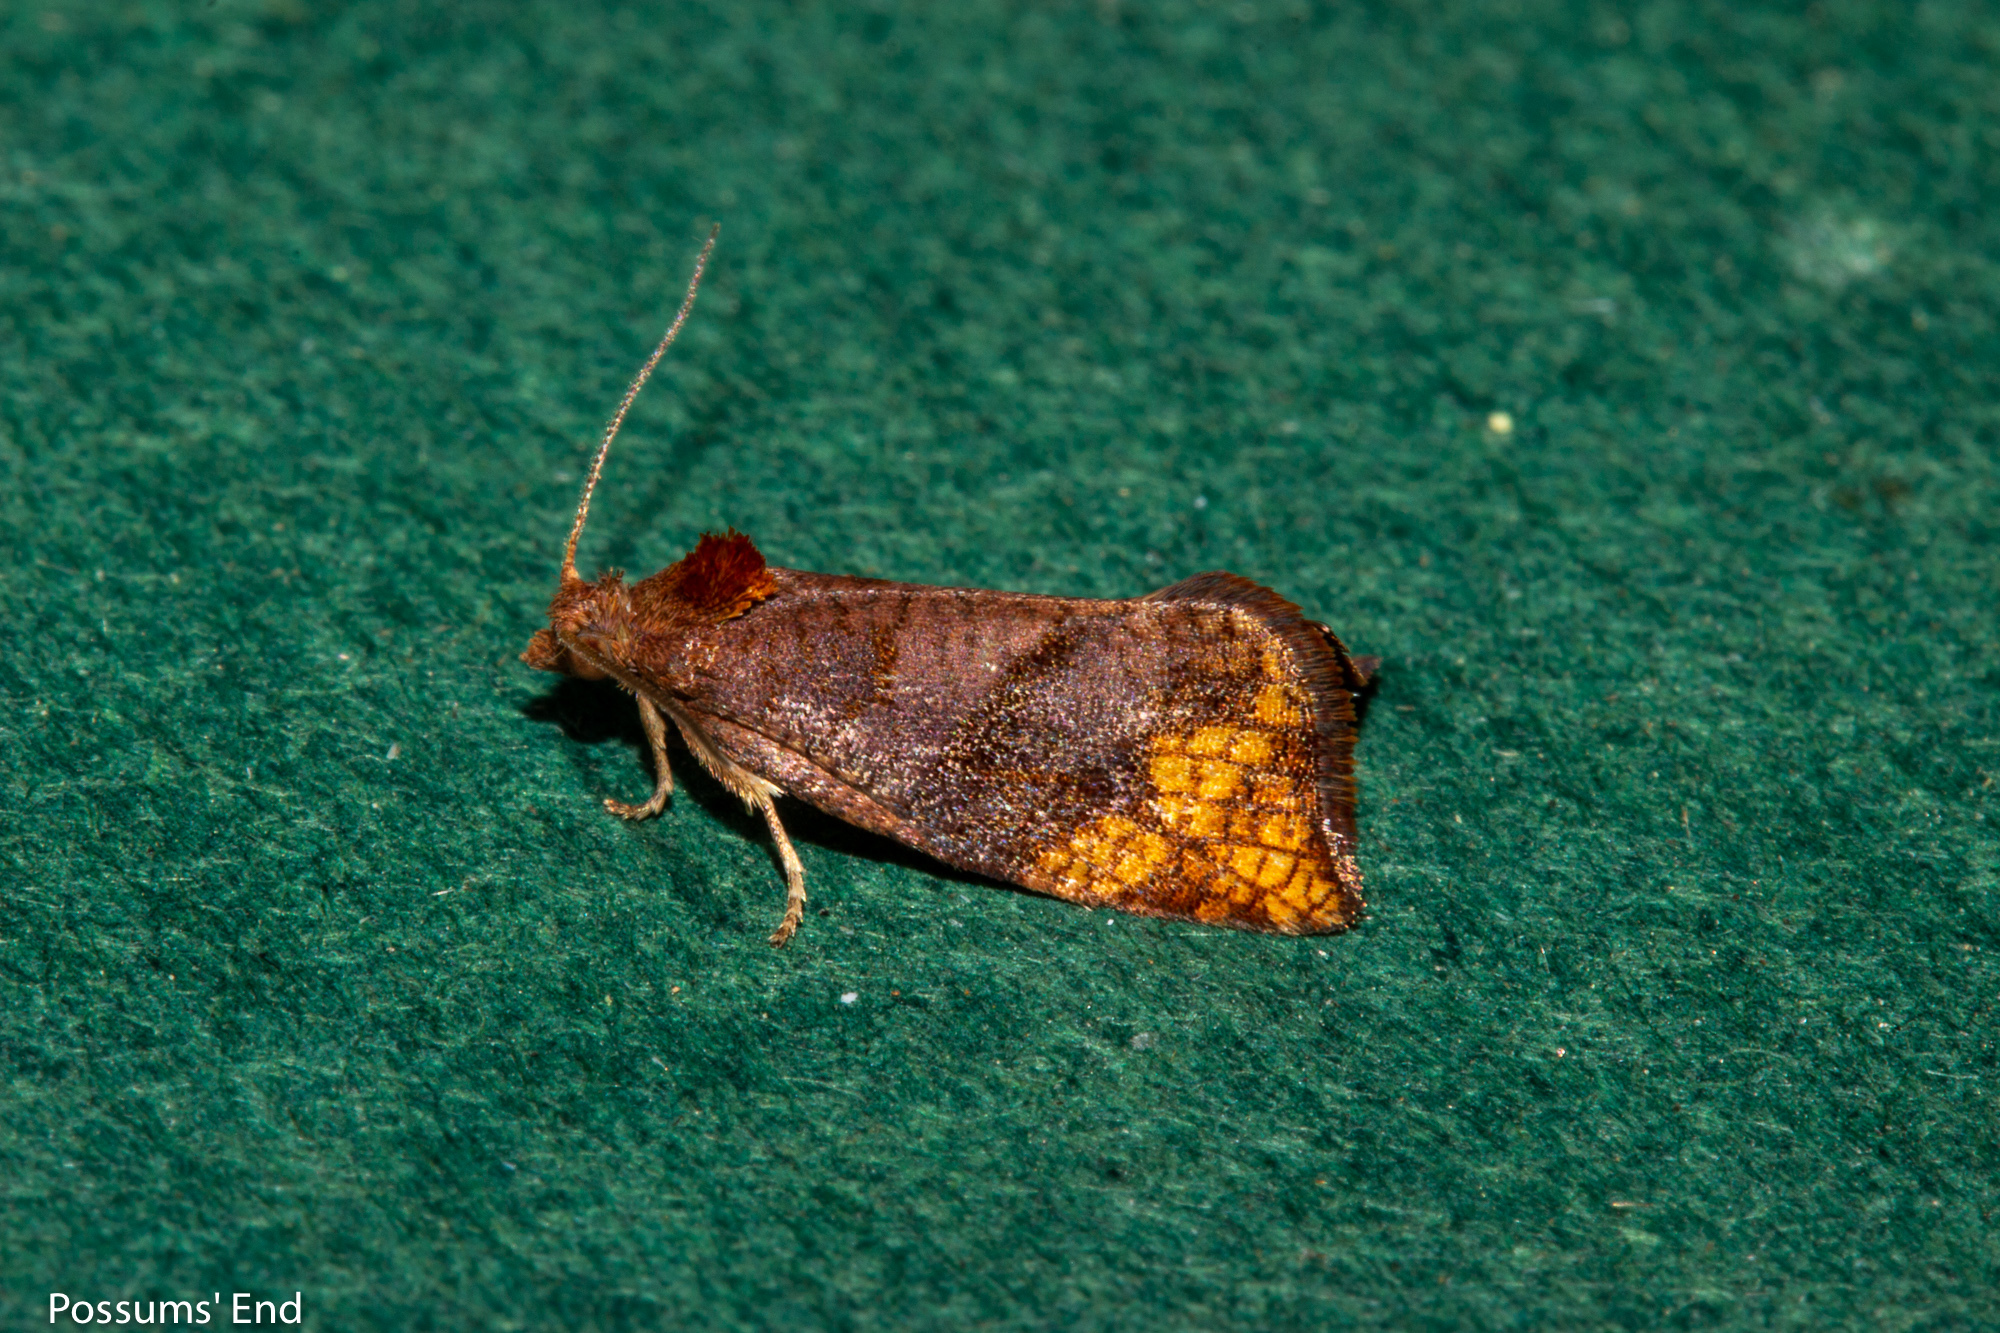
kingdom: Animalia
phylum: Arthropoda
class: Insecta
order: Lepidoptera
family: Tortricidae
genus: Pyrgotis
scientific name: Pyrgotis eudorana
